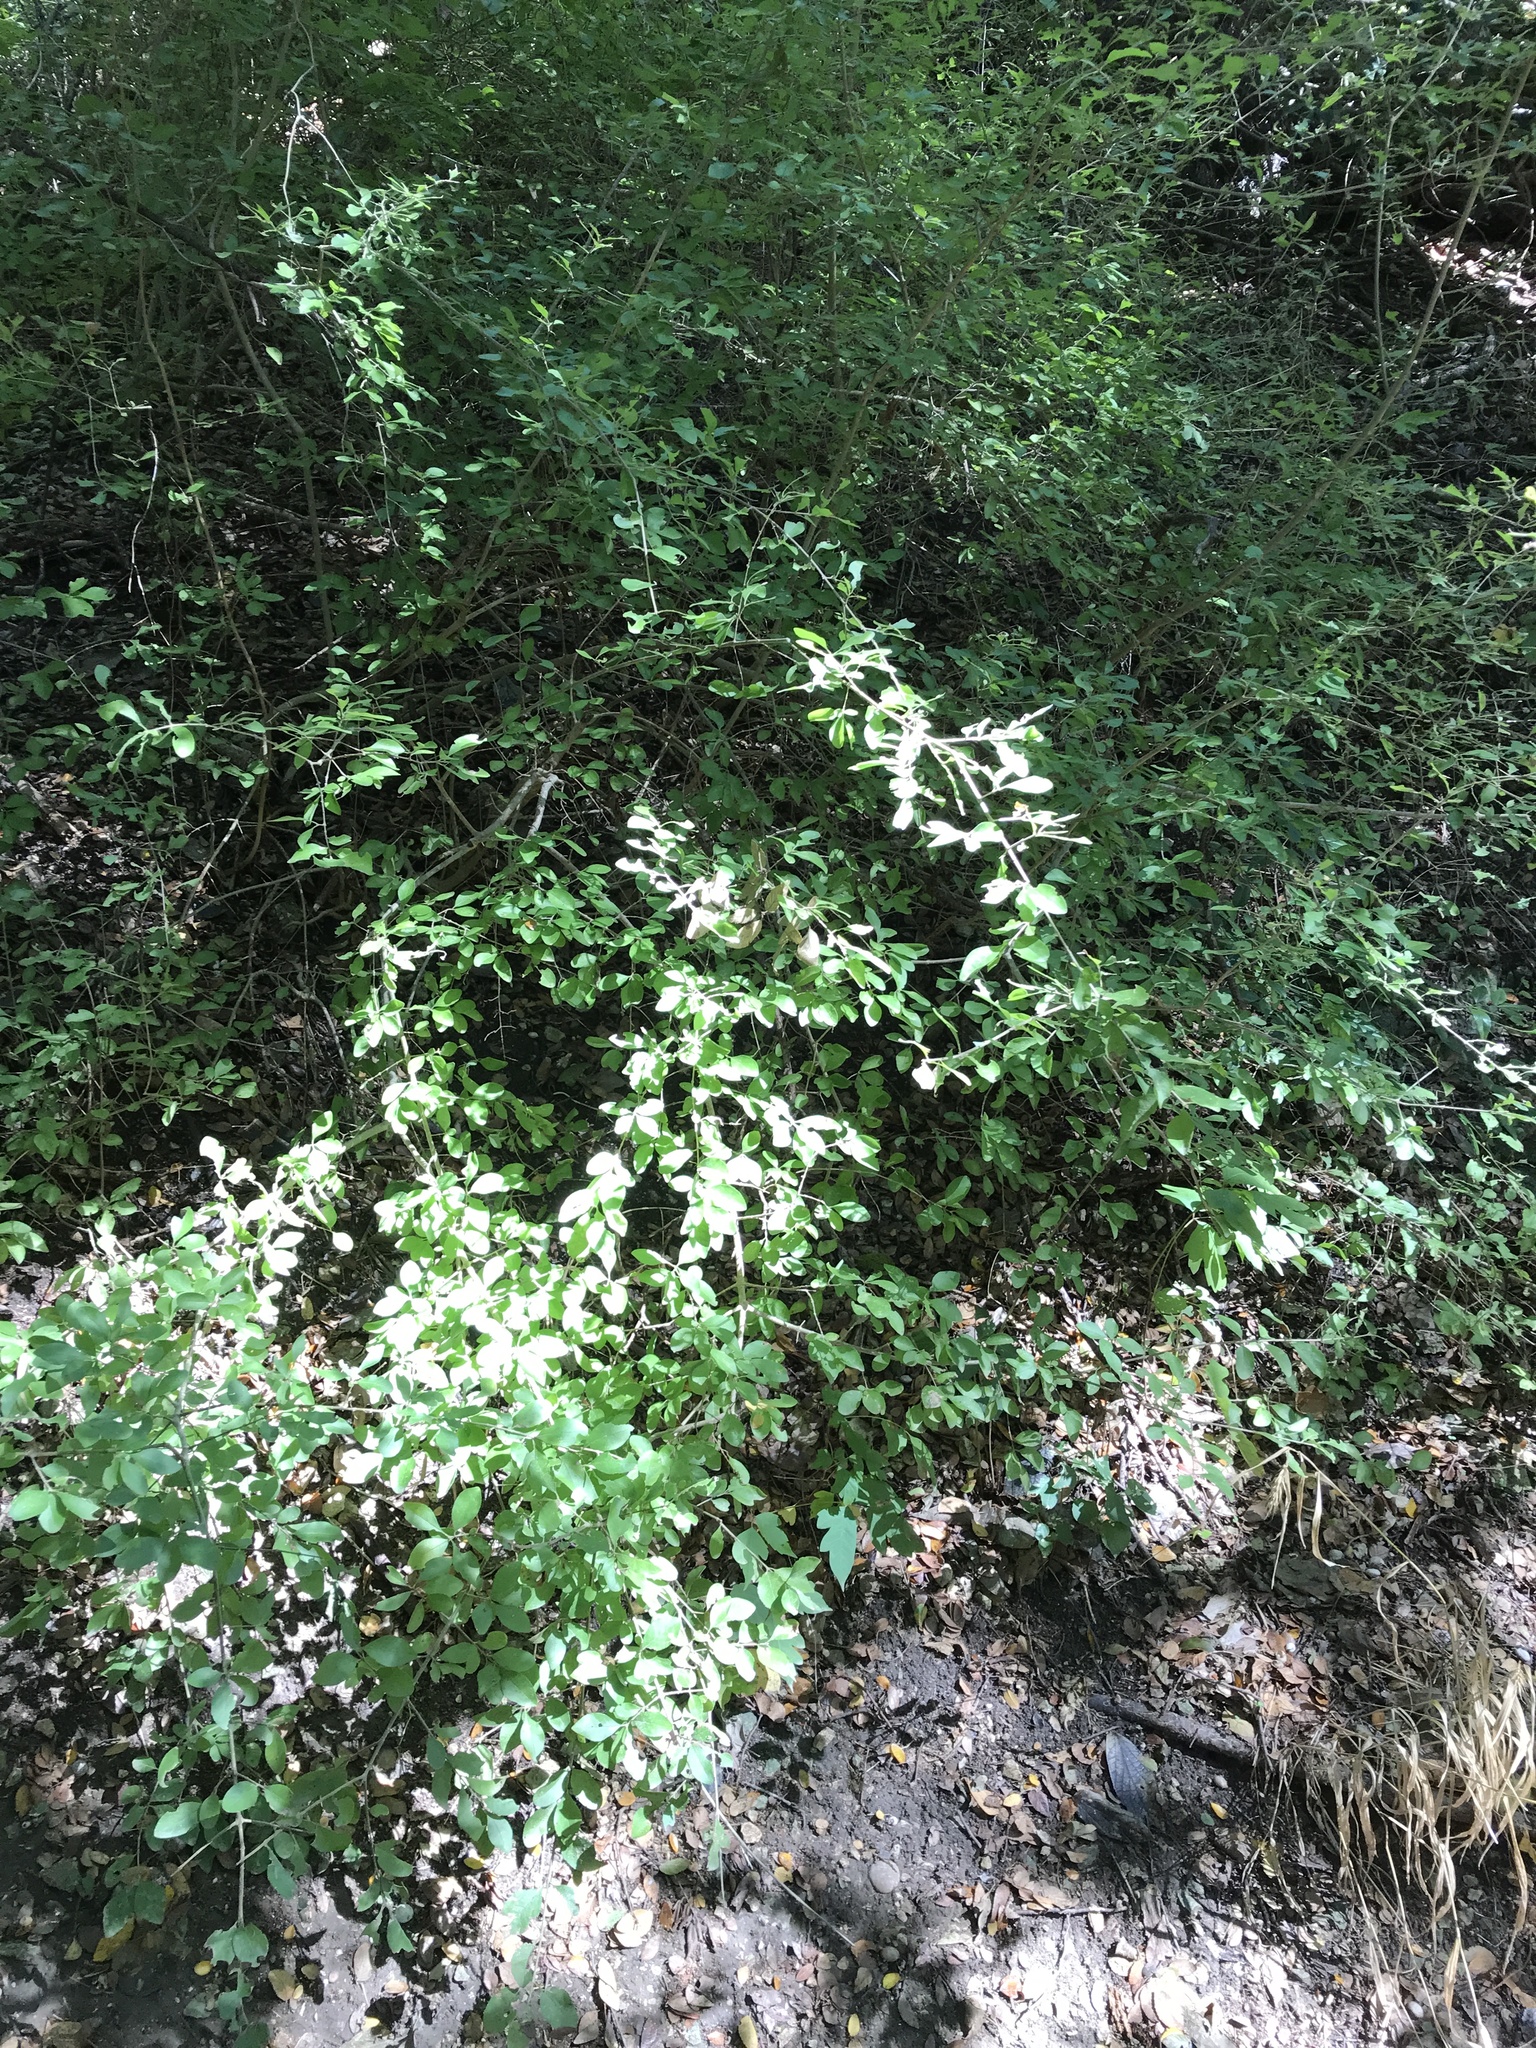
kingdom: Plantae
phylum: Tracheophyta
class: Magnoliopsida
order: Lamiales
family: Oleaceae
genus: Forestiera
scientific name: Forestiera pubescens
